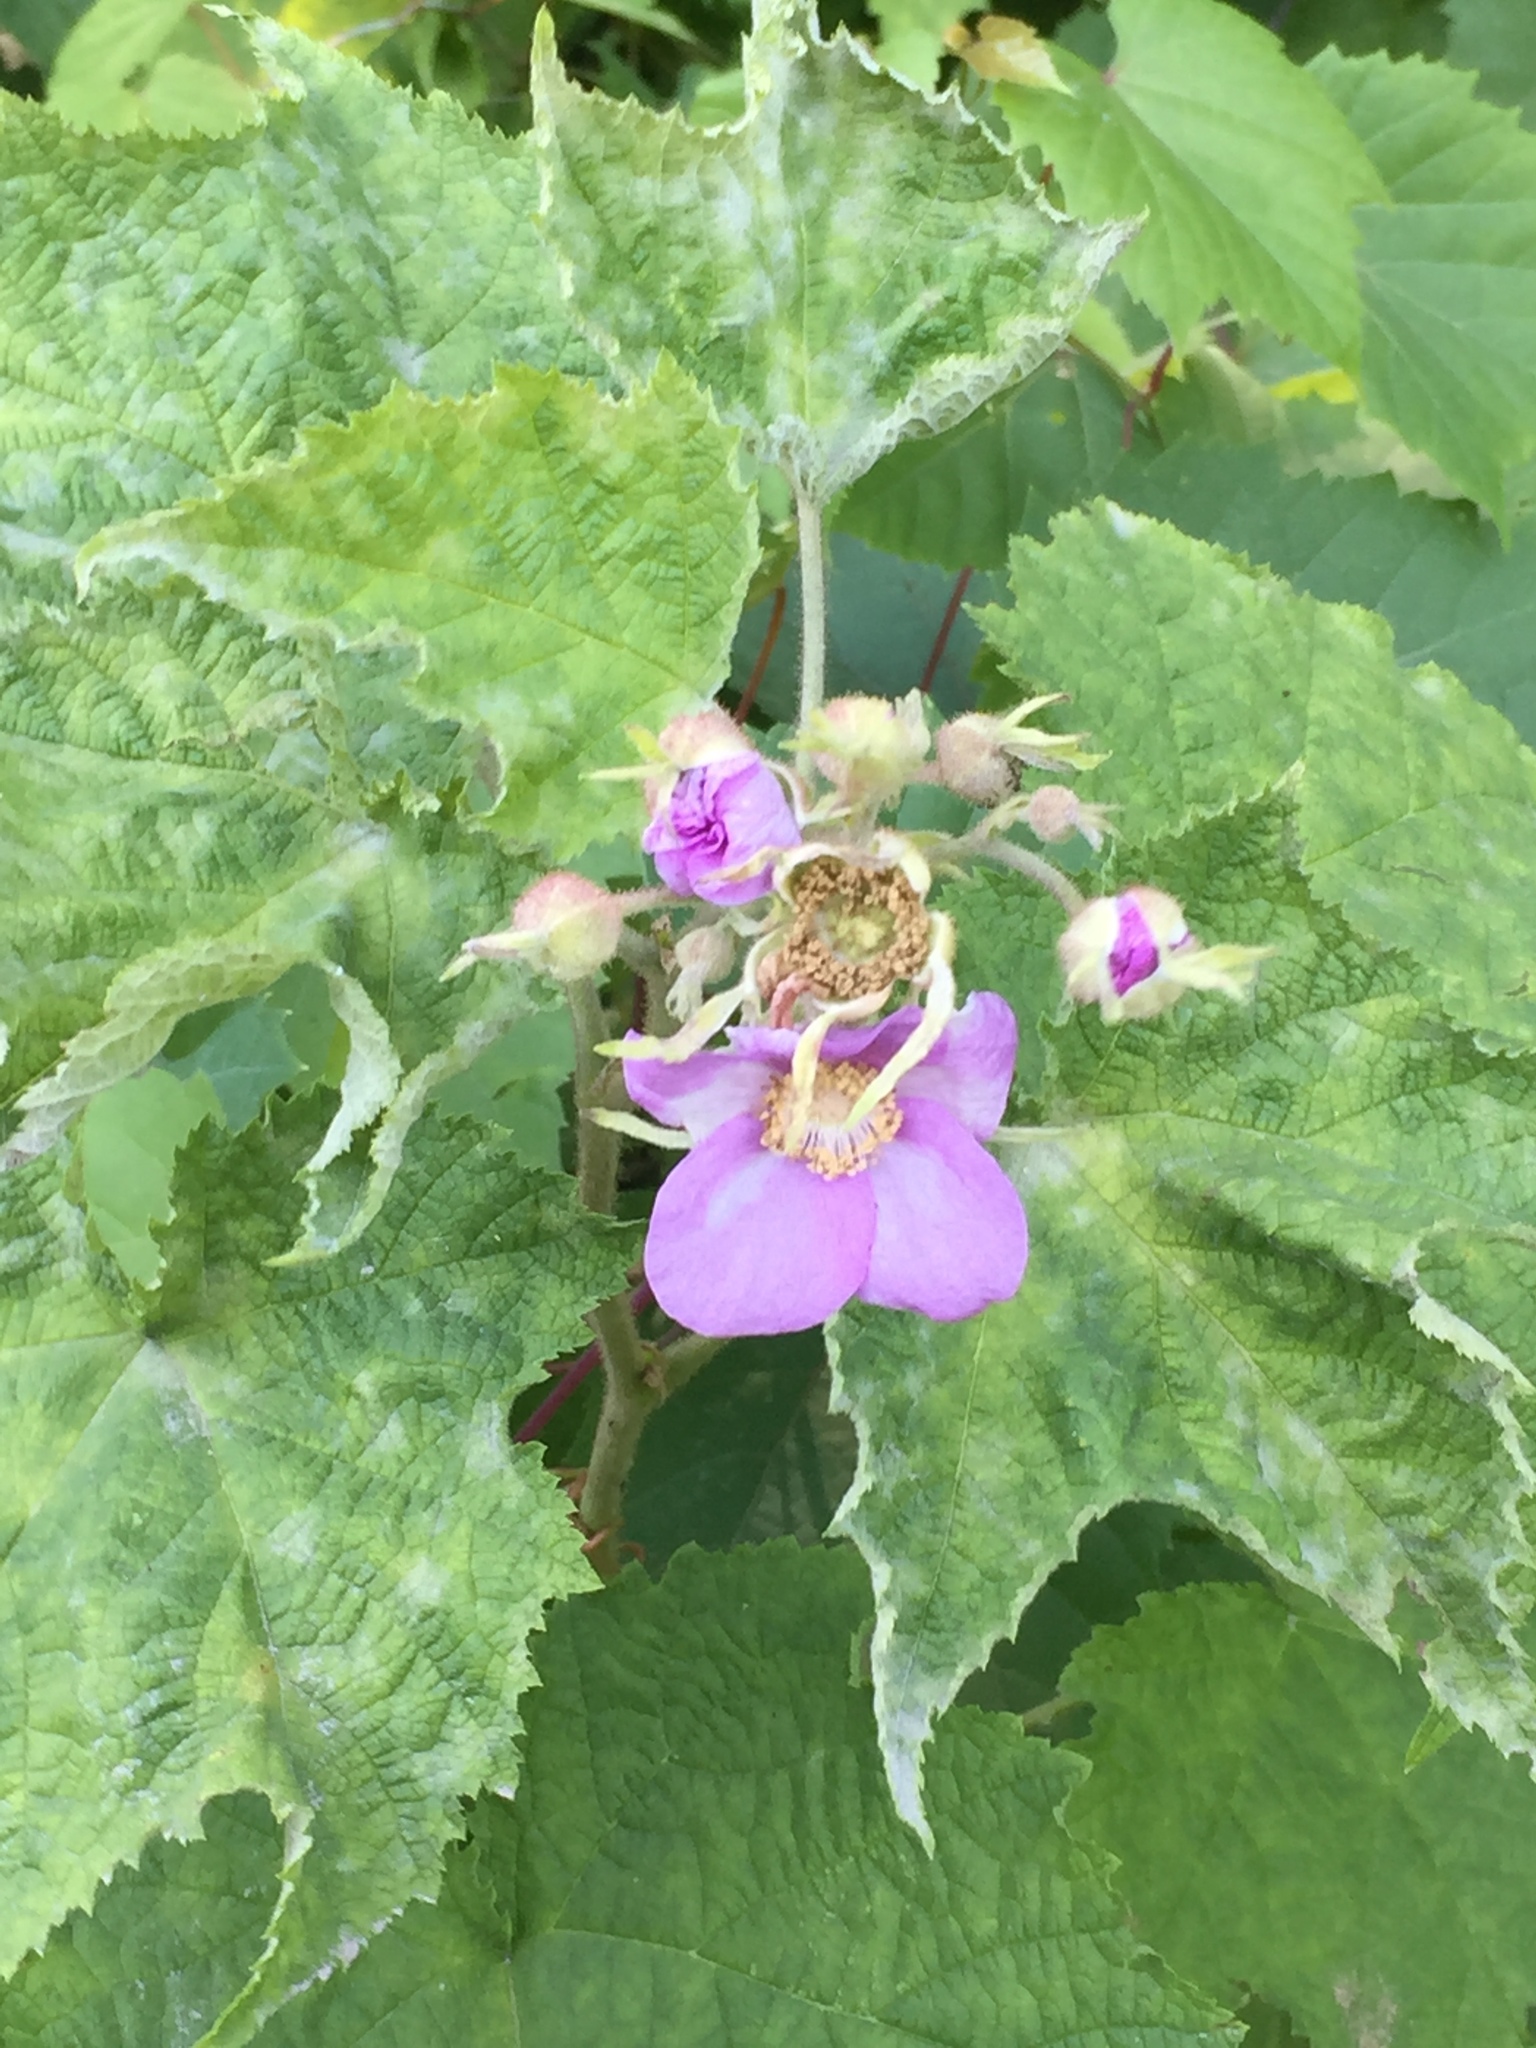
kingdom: Plantae
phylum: Tracheophyta
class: Magnoliopsida
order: Rosales
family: Rosaceae
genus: Rubus
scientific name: Rubus odoratus
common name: Purple-flowered raspberry
